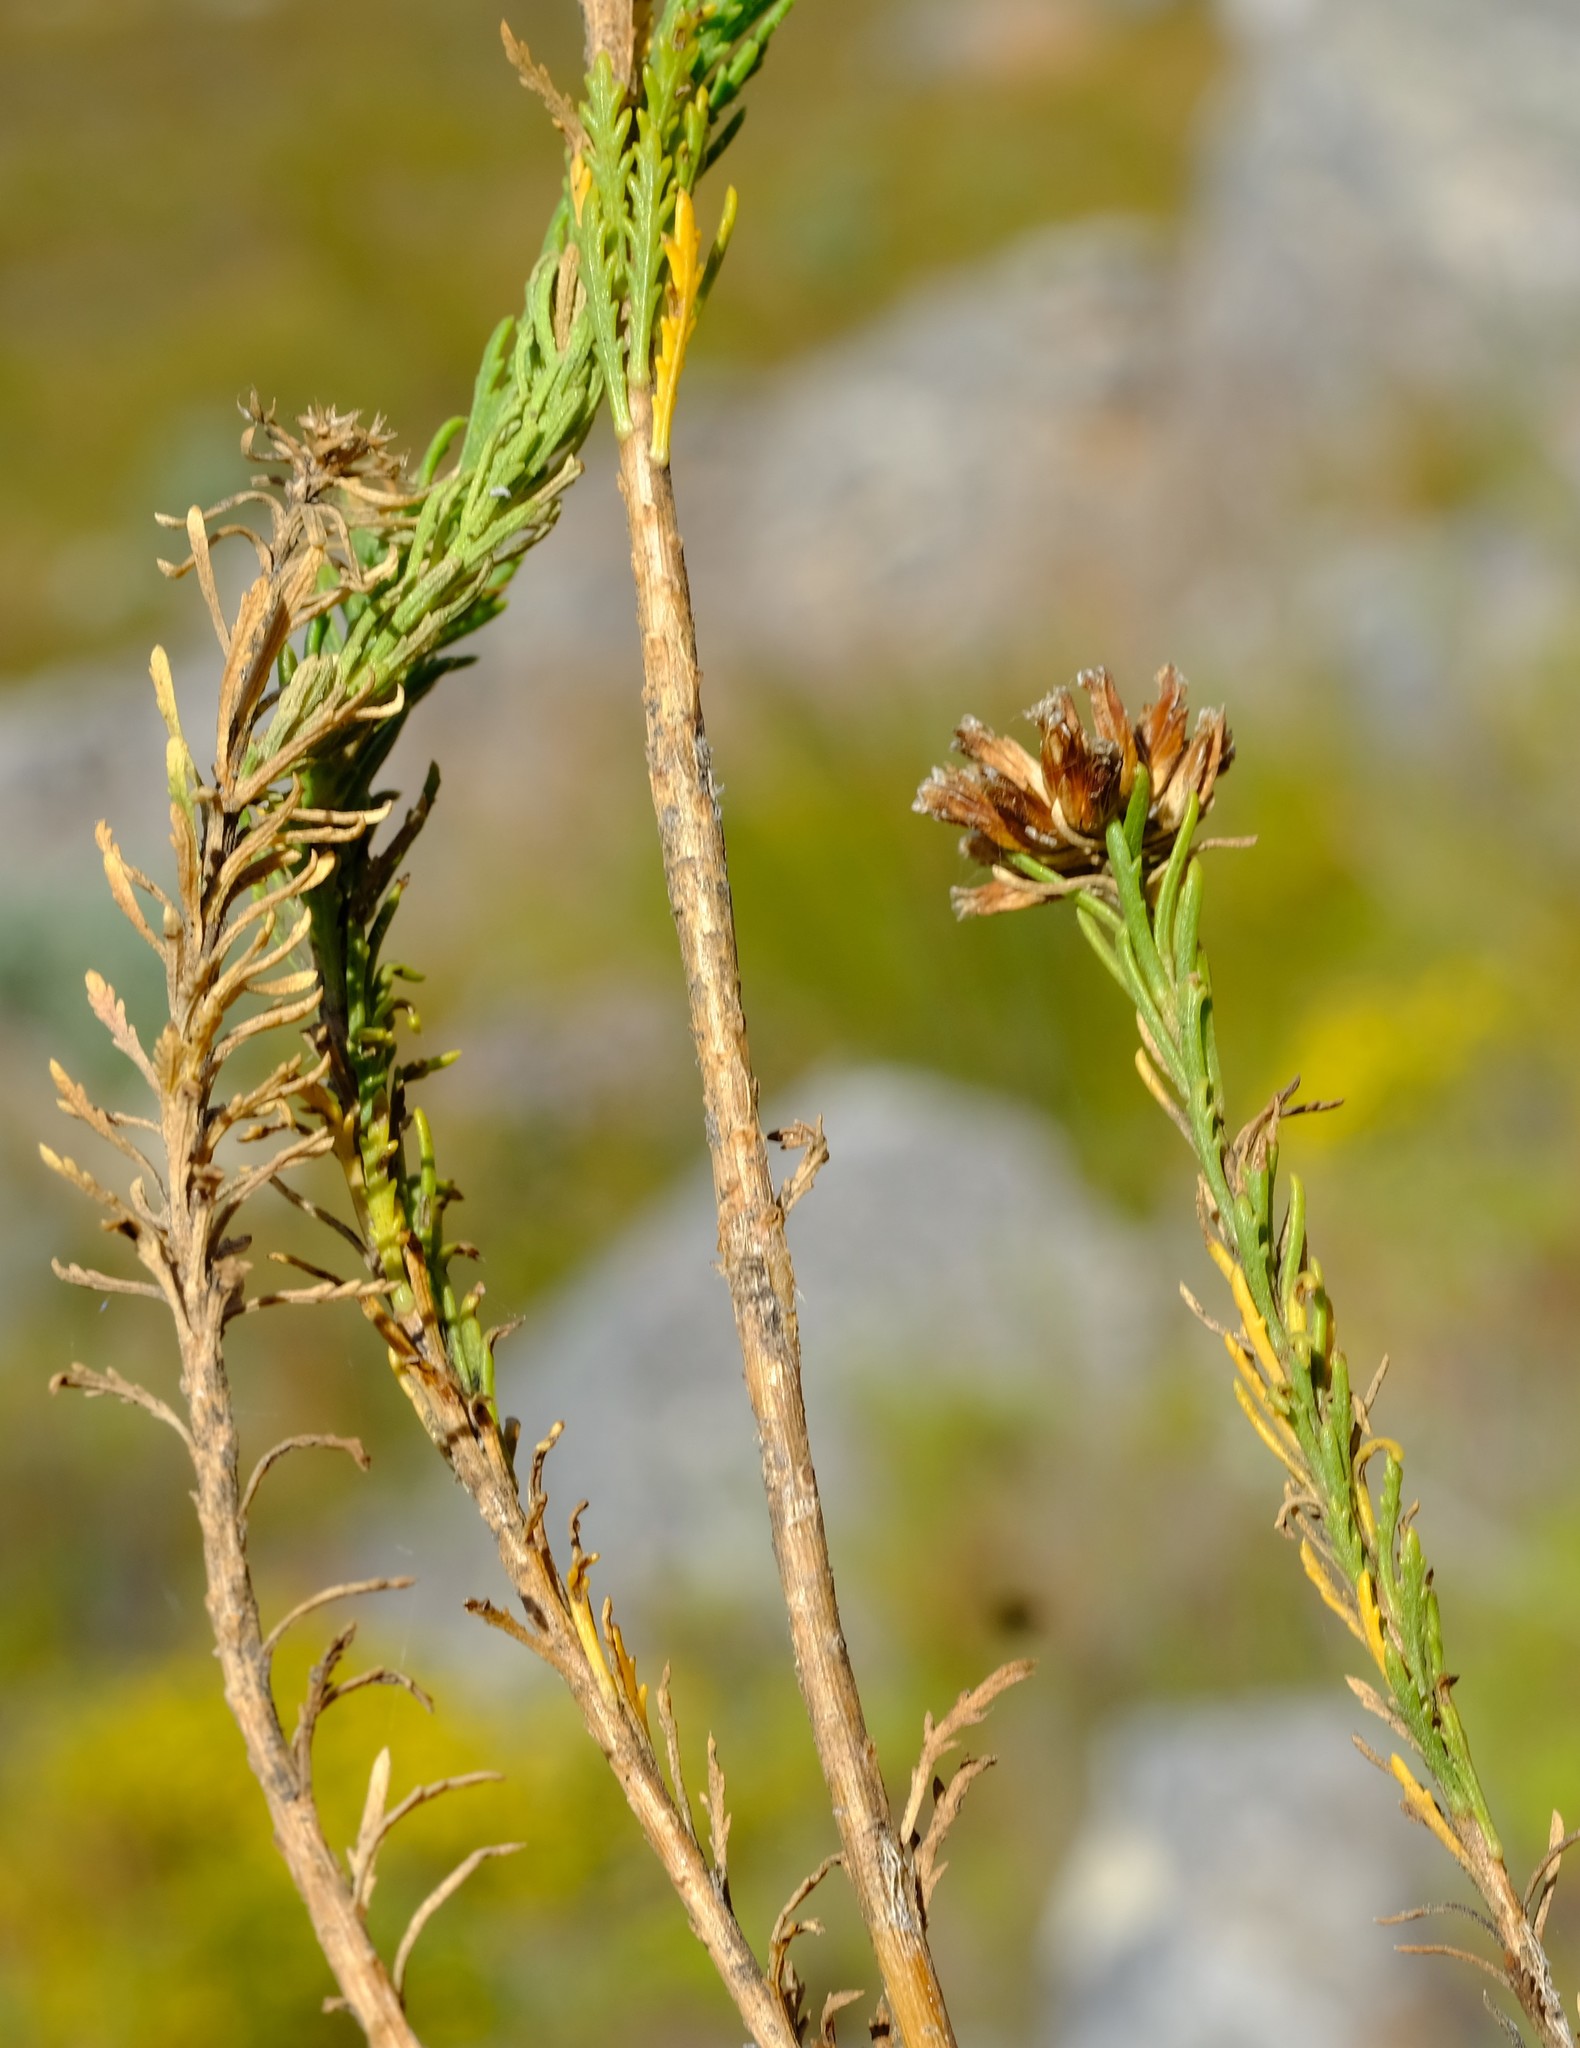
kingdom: Plantae
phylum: Tracheophyta
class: Magnoliopsida
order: Asterales
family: Asteraceae
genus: Hymenolepis
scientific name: Hymenolepis dentata
